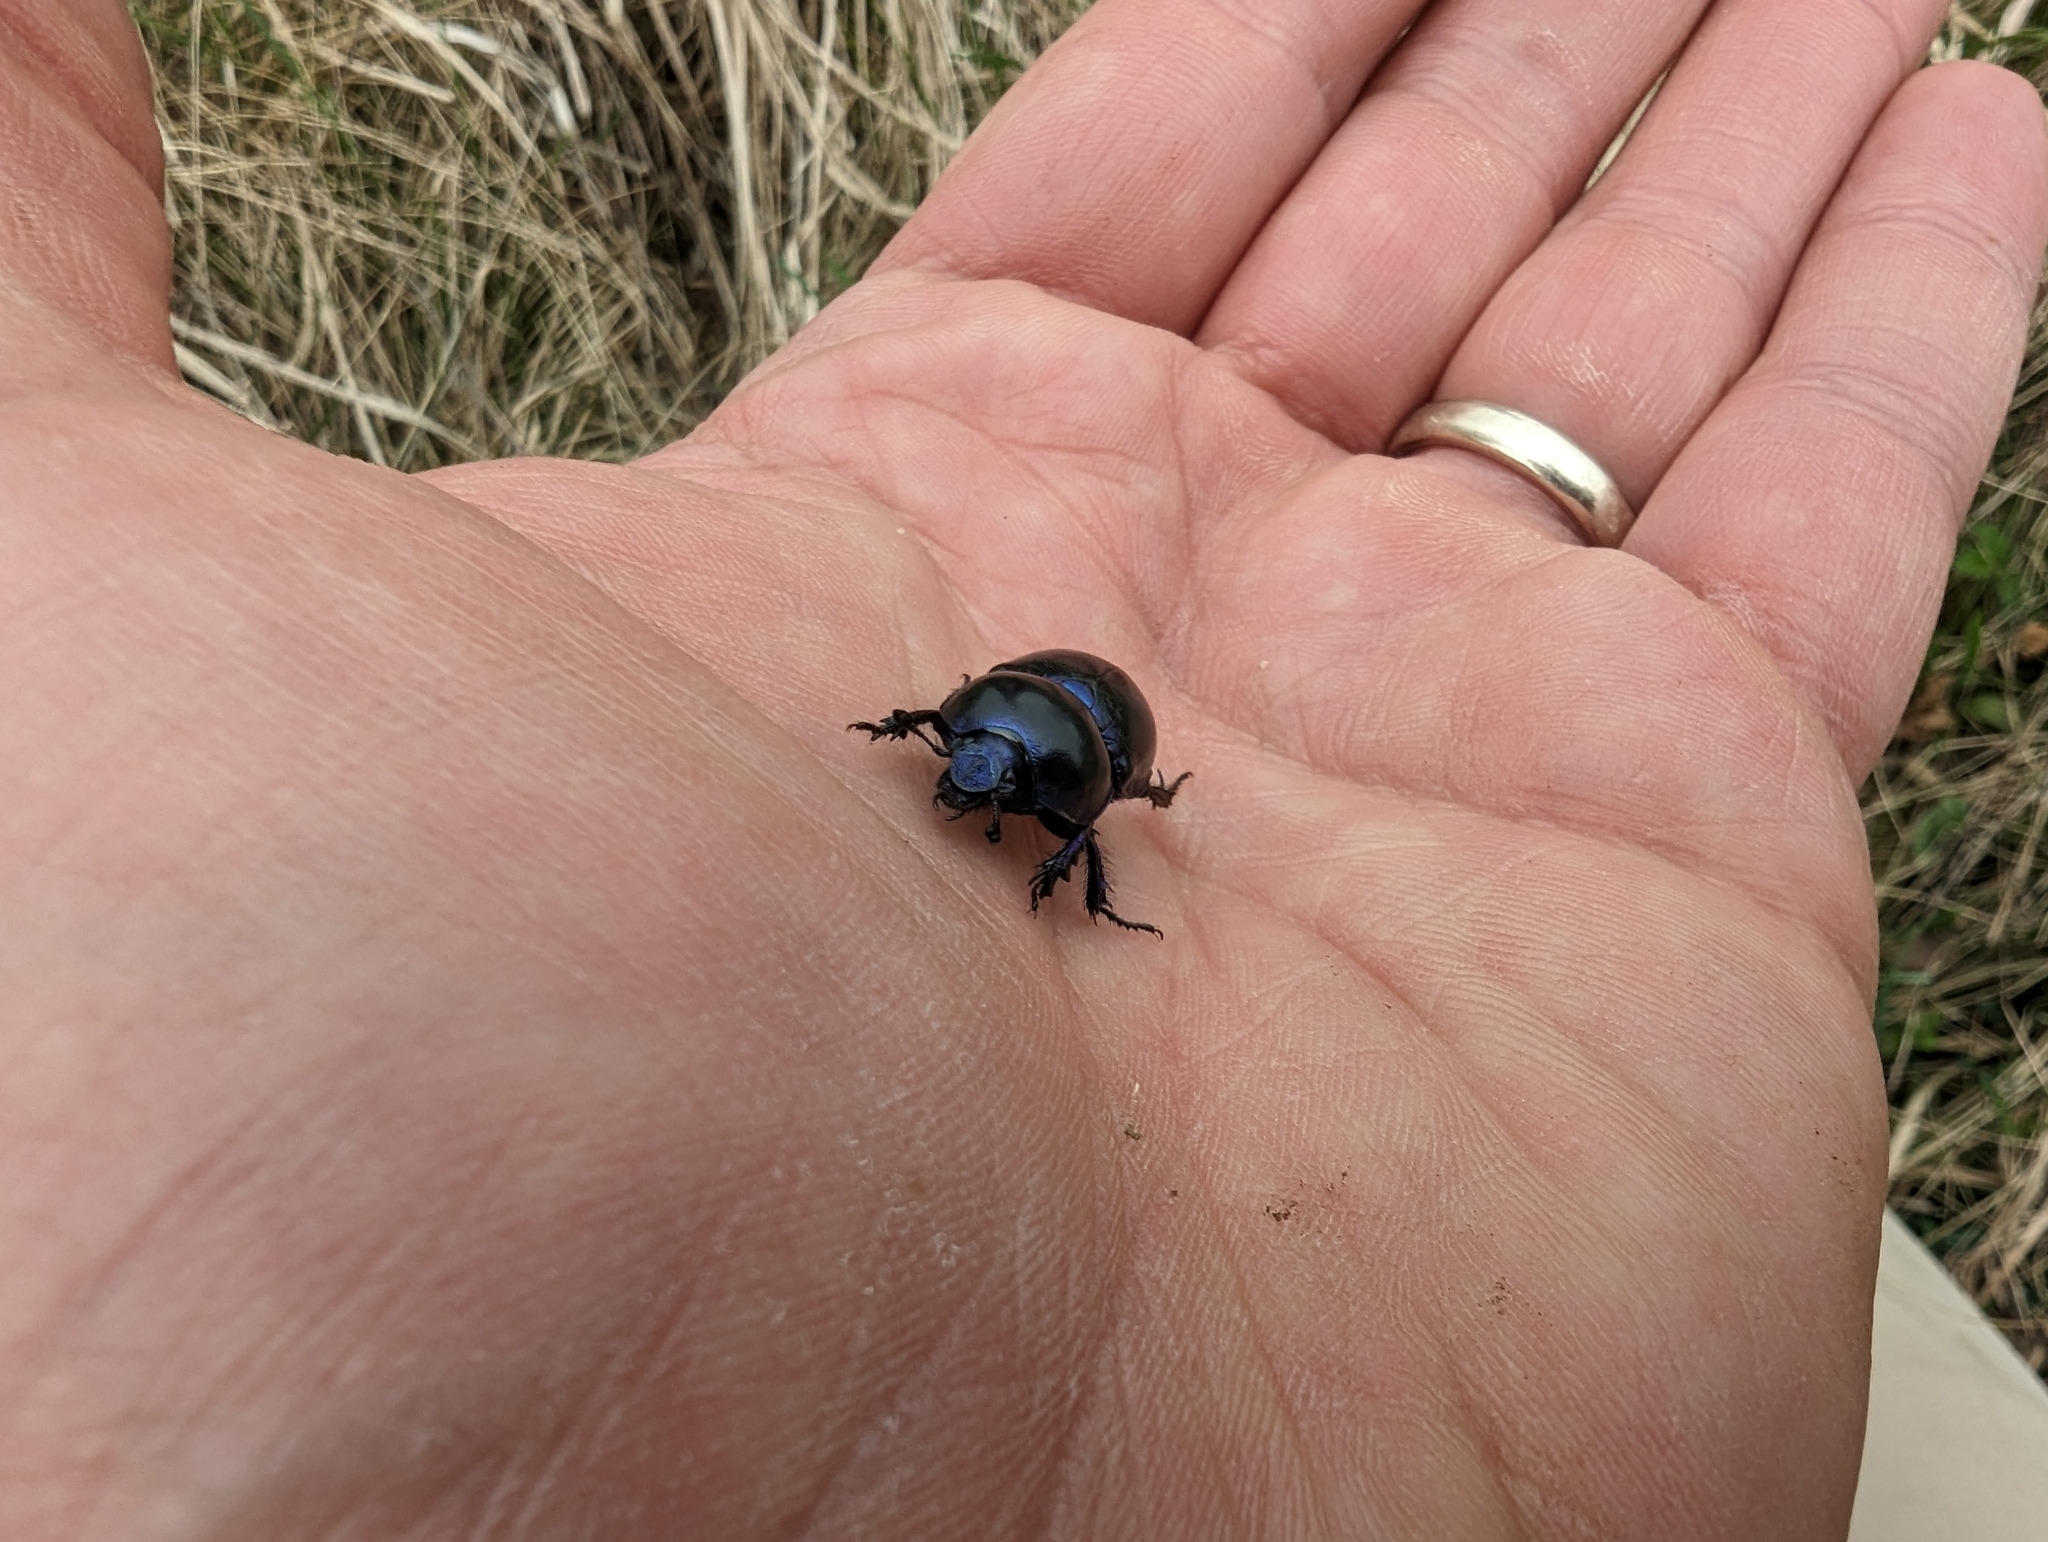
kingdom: Animalia
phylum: Arthropoda
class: Insecta
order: Coleoptera
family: Geotrupidae
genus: Trypocopris
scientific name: Trypocopris vernalis
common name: Spring dumbledor
